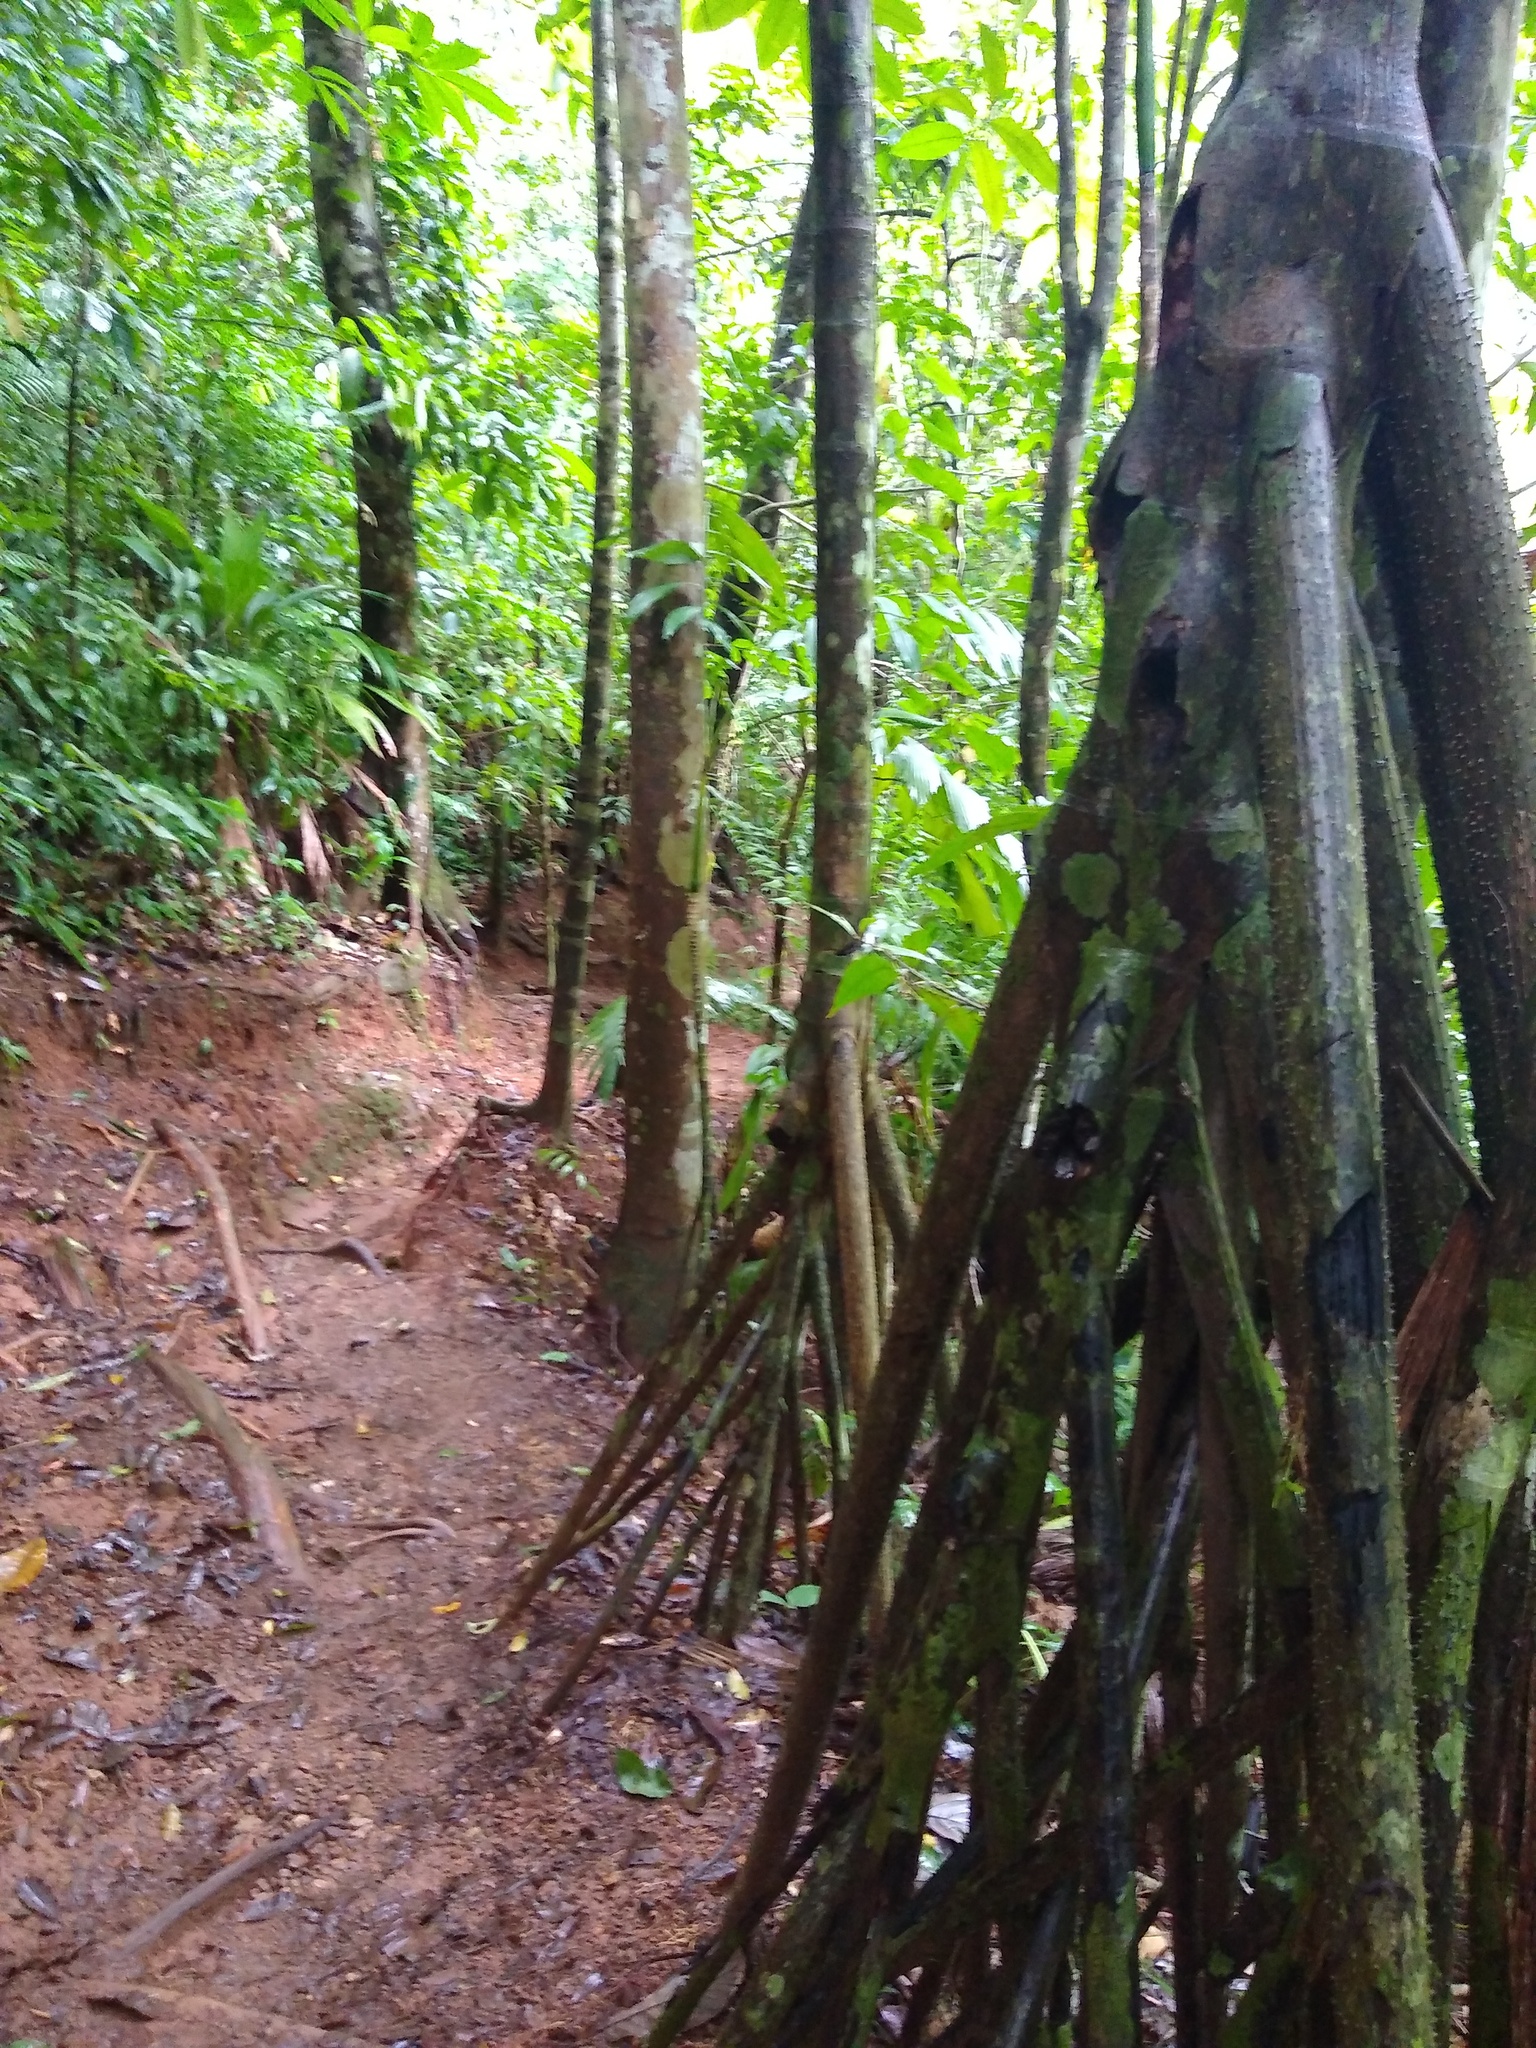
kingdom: Plantae
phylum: Tracheophyta
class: Liliopsida
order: Arecales
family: Arecaceae
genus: Socratea
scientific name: Socratea exorrhiza
